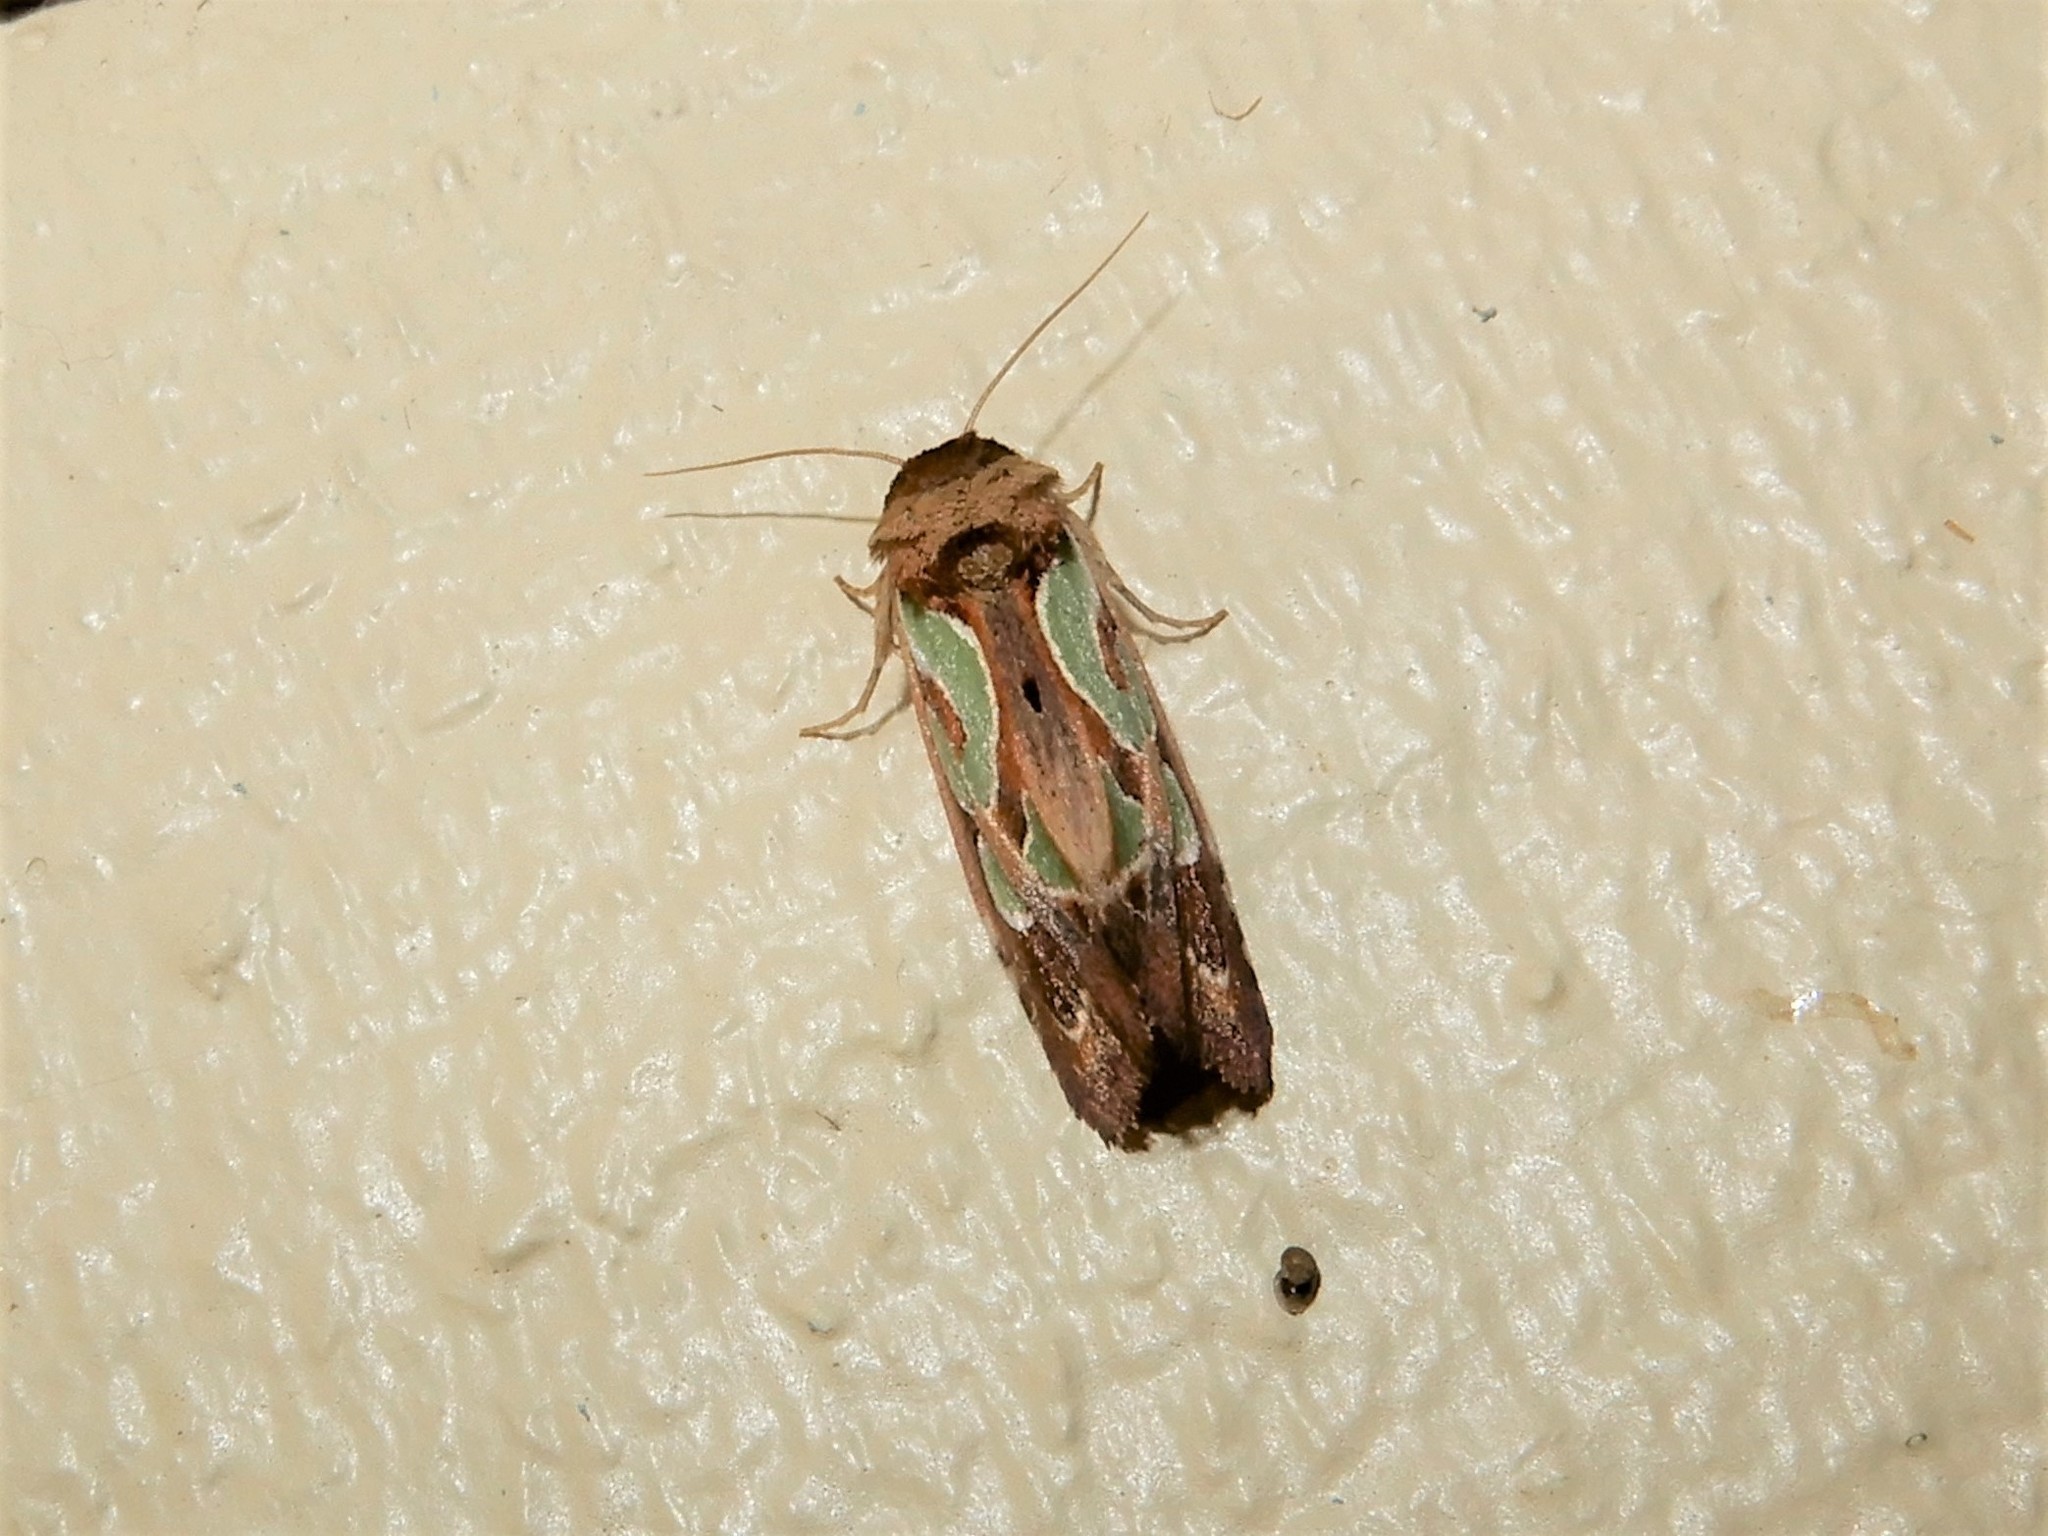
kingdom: Animalia
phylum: Arthropoda
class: Insecta
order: Lepidoptera
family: Noctuidae
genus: Cosmodes
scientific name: Cosmodes elegans
